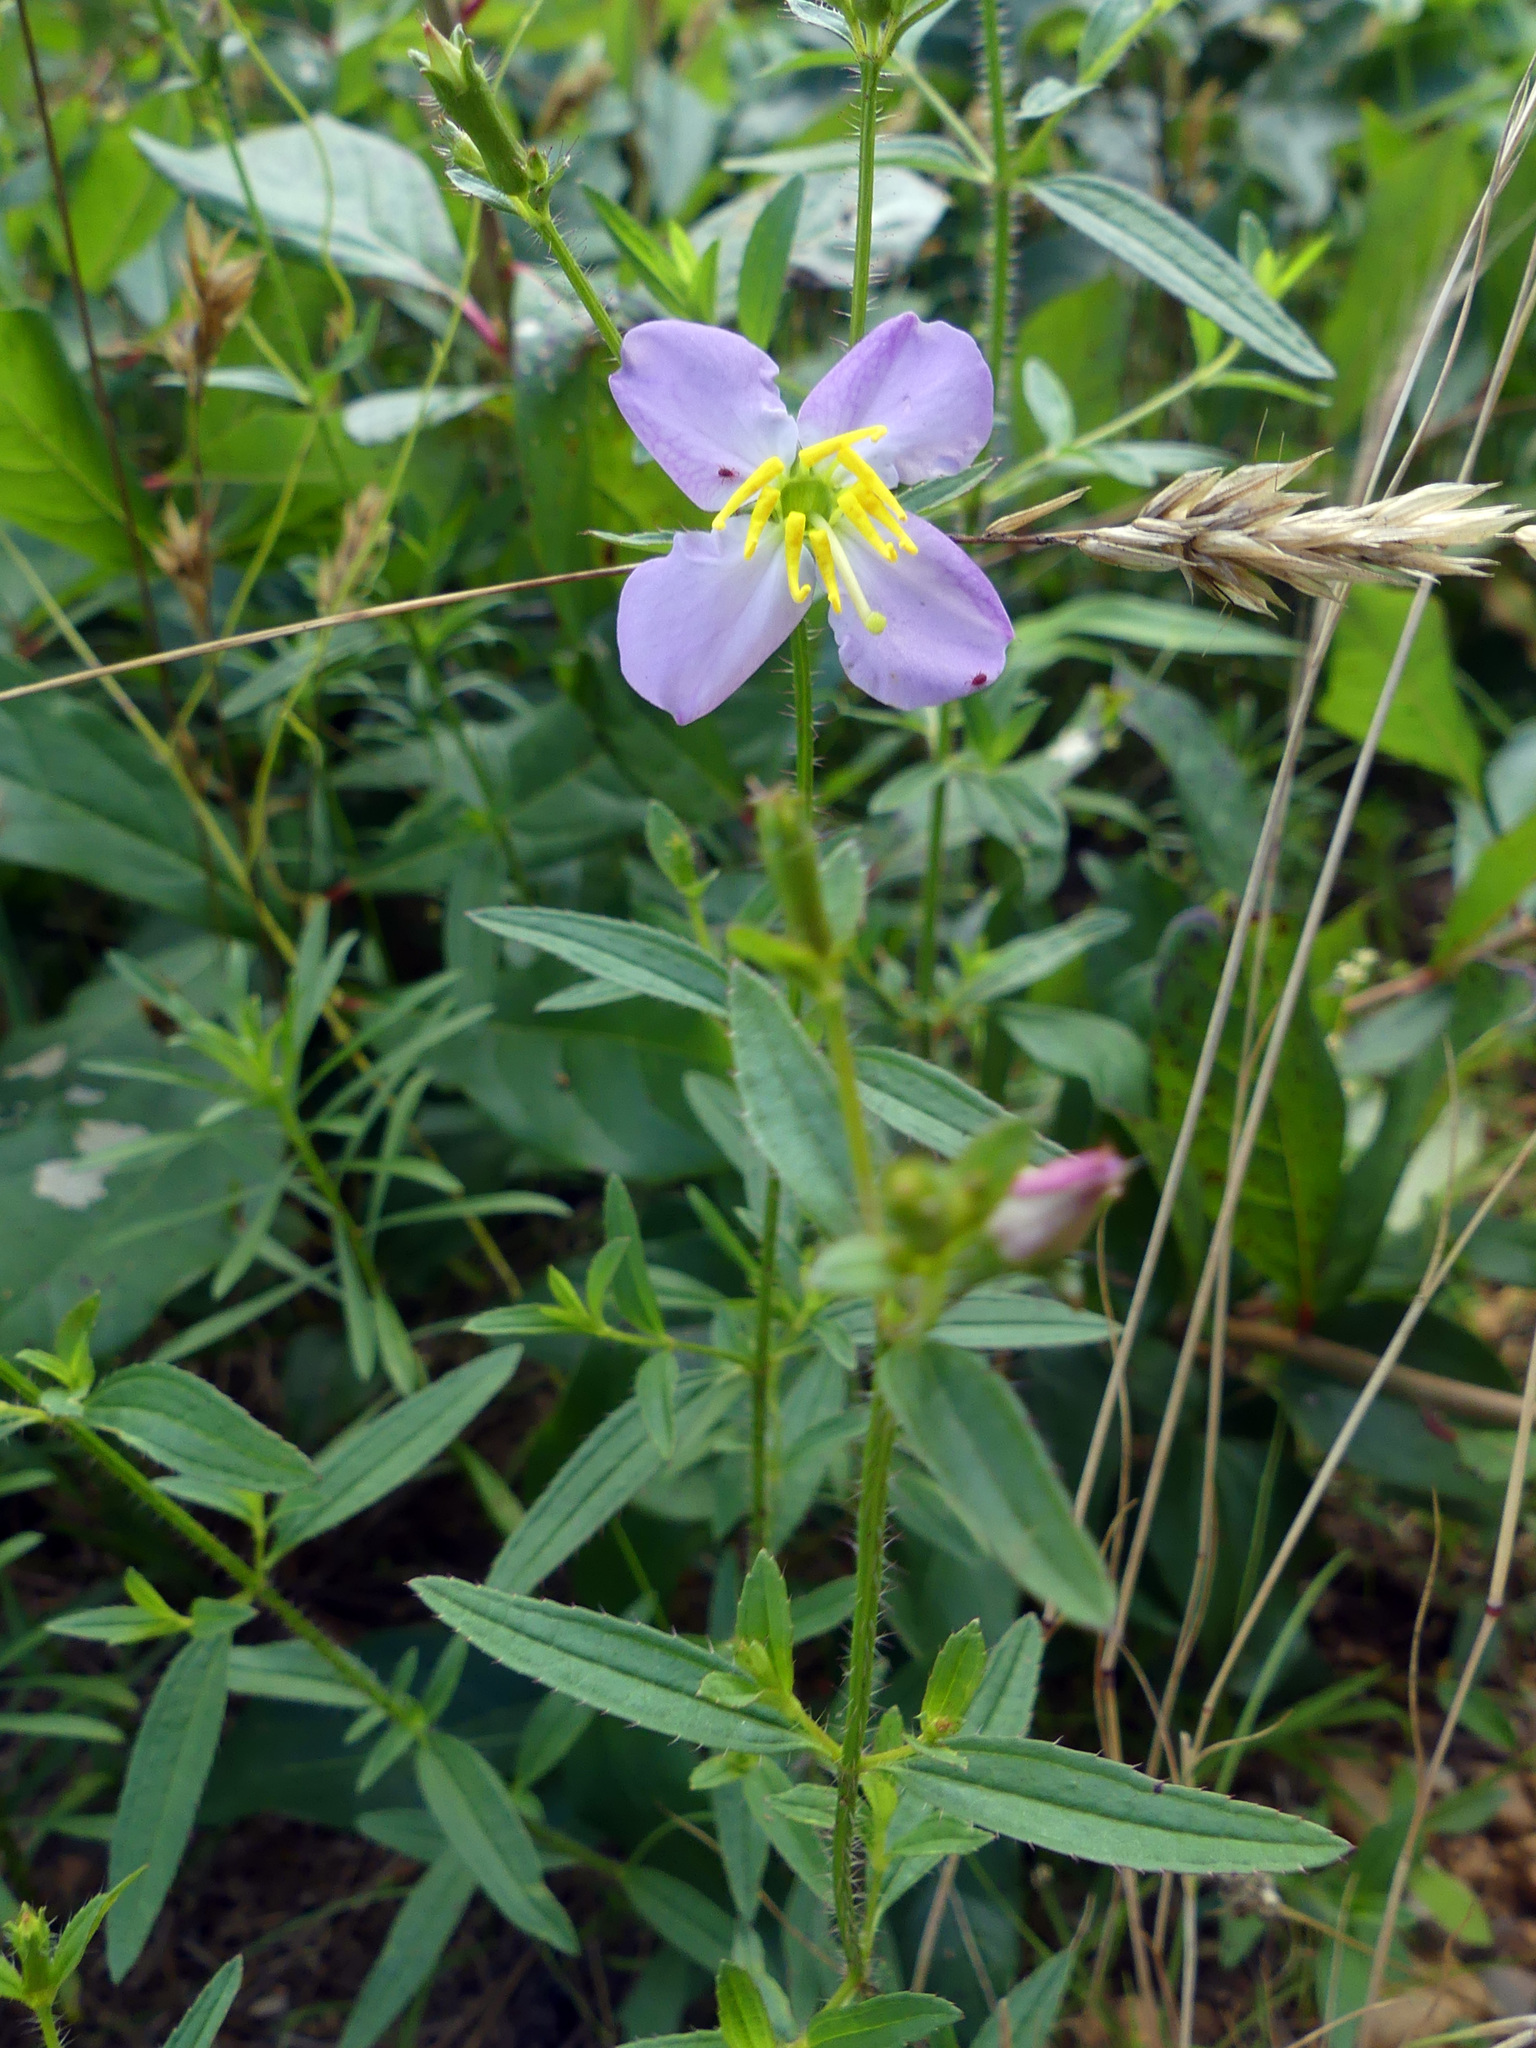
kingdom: Plantae
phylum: Tracheophyta
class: Magnoliopsida
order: Myrtales
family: Melastomataceae
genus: Rhexia
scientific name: Rhexia mariana
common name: Dull meadow-pitcher
